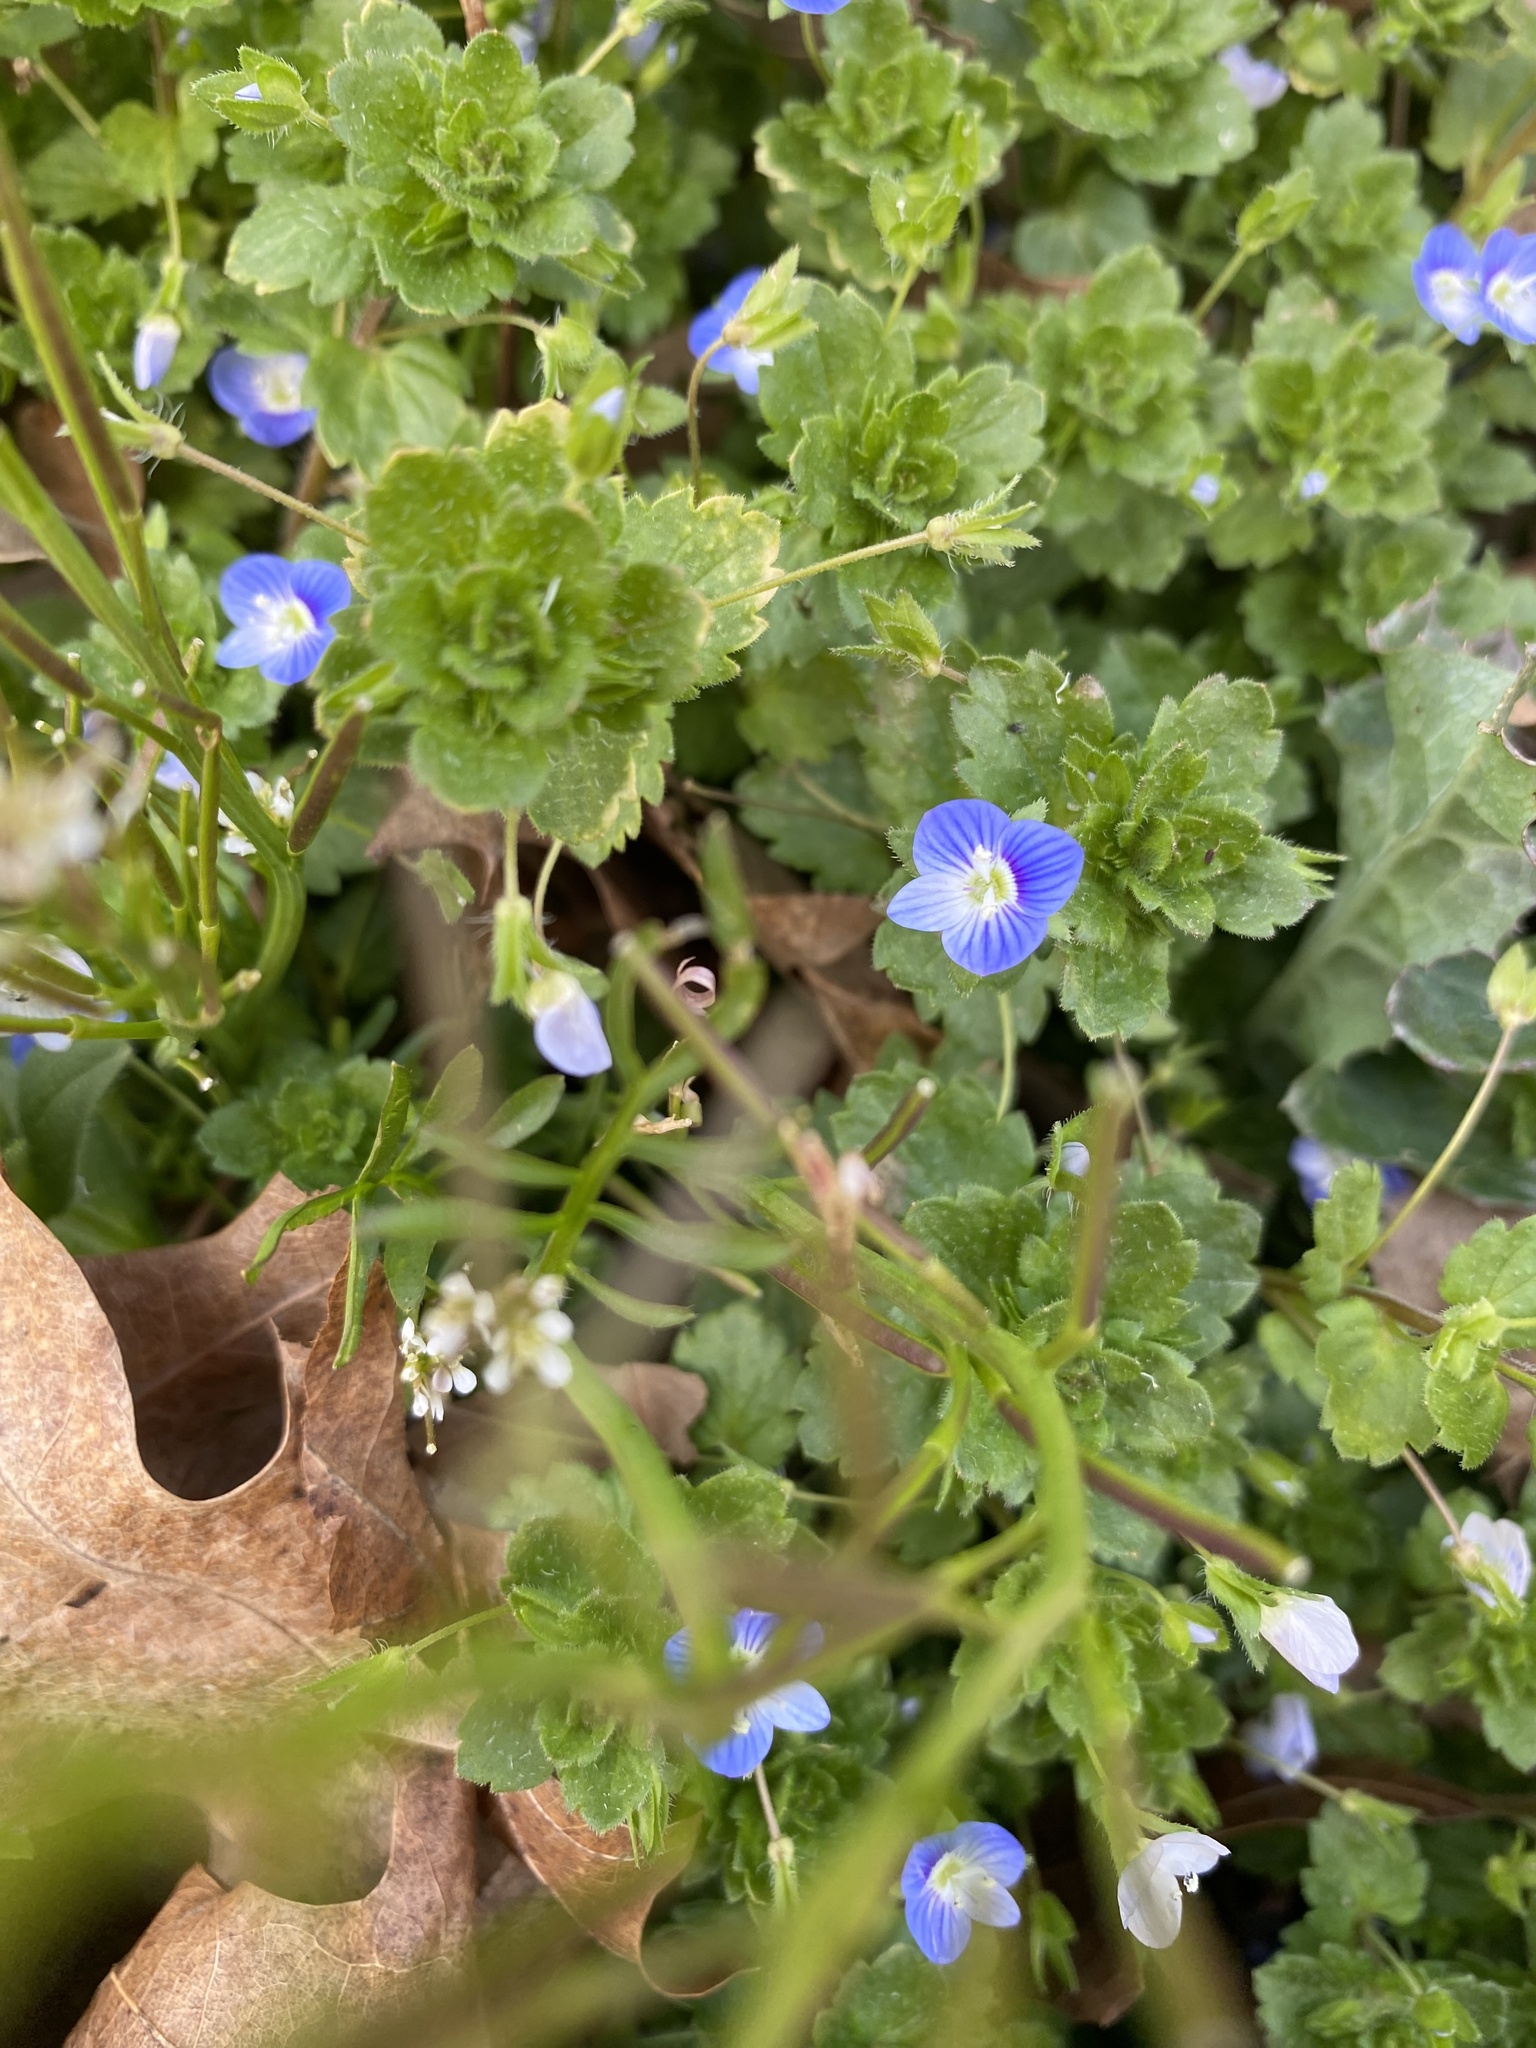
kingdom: Plantae
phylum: Tracheophyta
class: Magnoliopsida
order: Lamiales
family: Plantaginaceae
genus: Veronica
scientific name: Veronica persica
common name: Common field-speedwell
